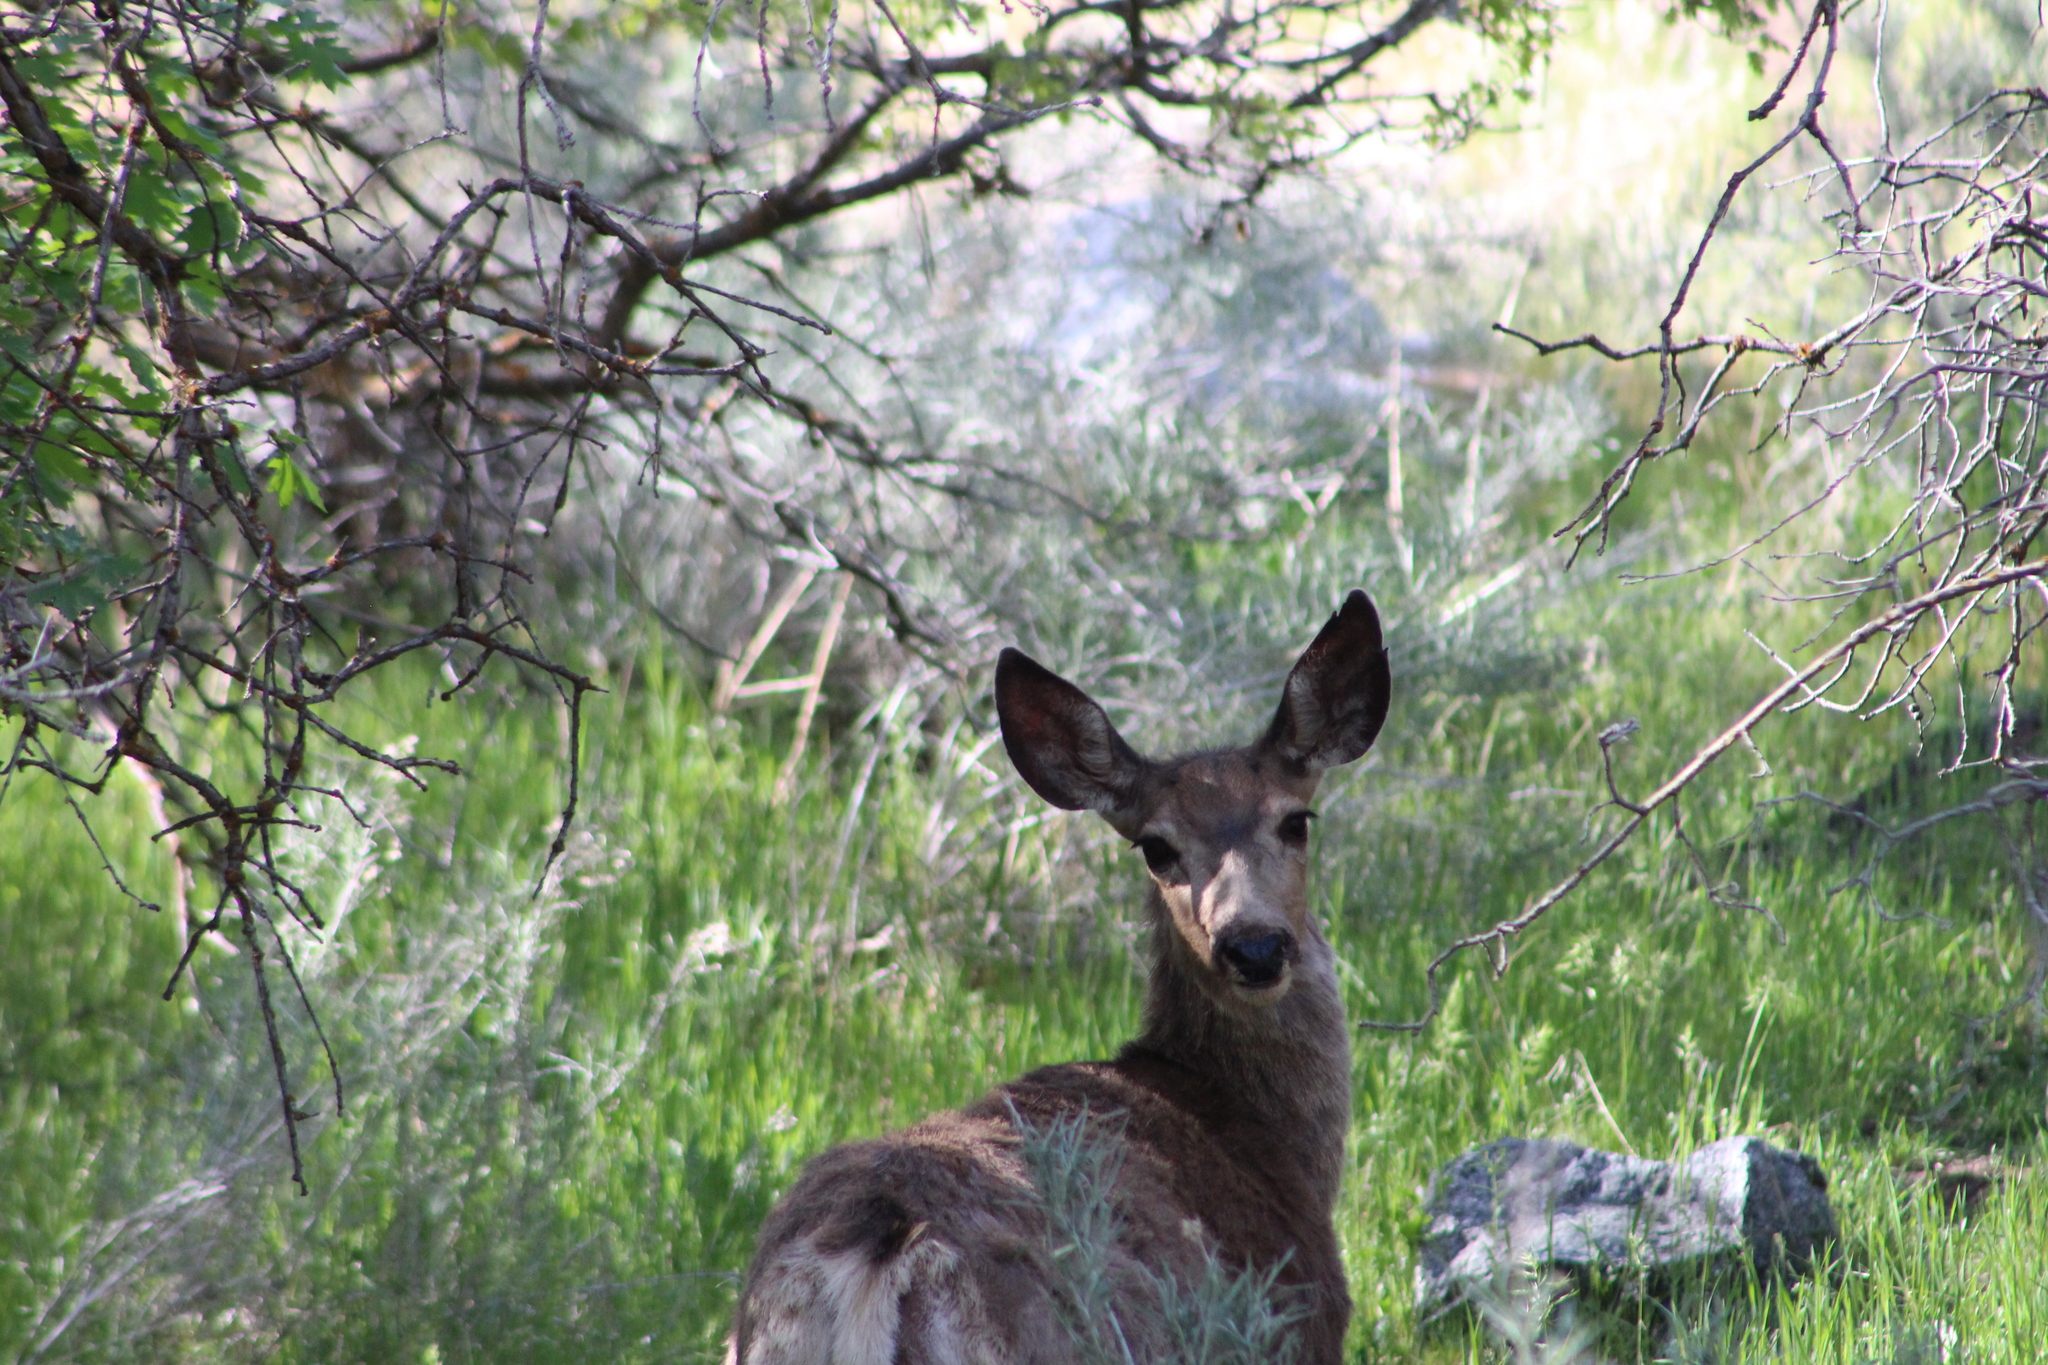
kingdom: Animalia
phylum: Chordata
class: Mammalia
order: Artiodactyla
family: Cervidae
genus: Odocoileus
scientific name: Odocoileus hemionus
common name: Mule deer
